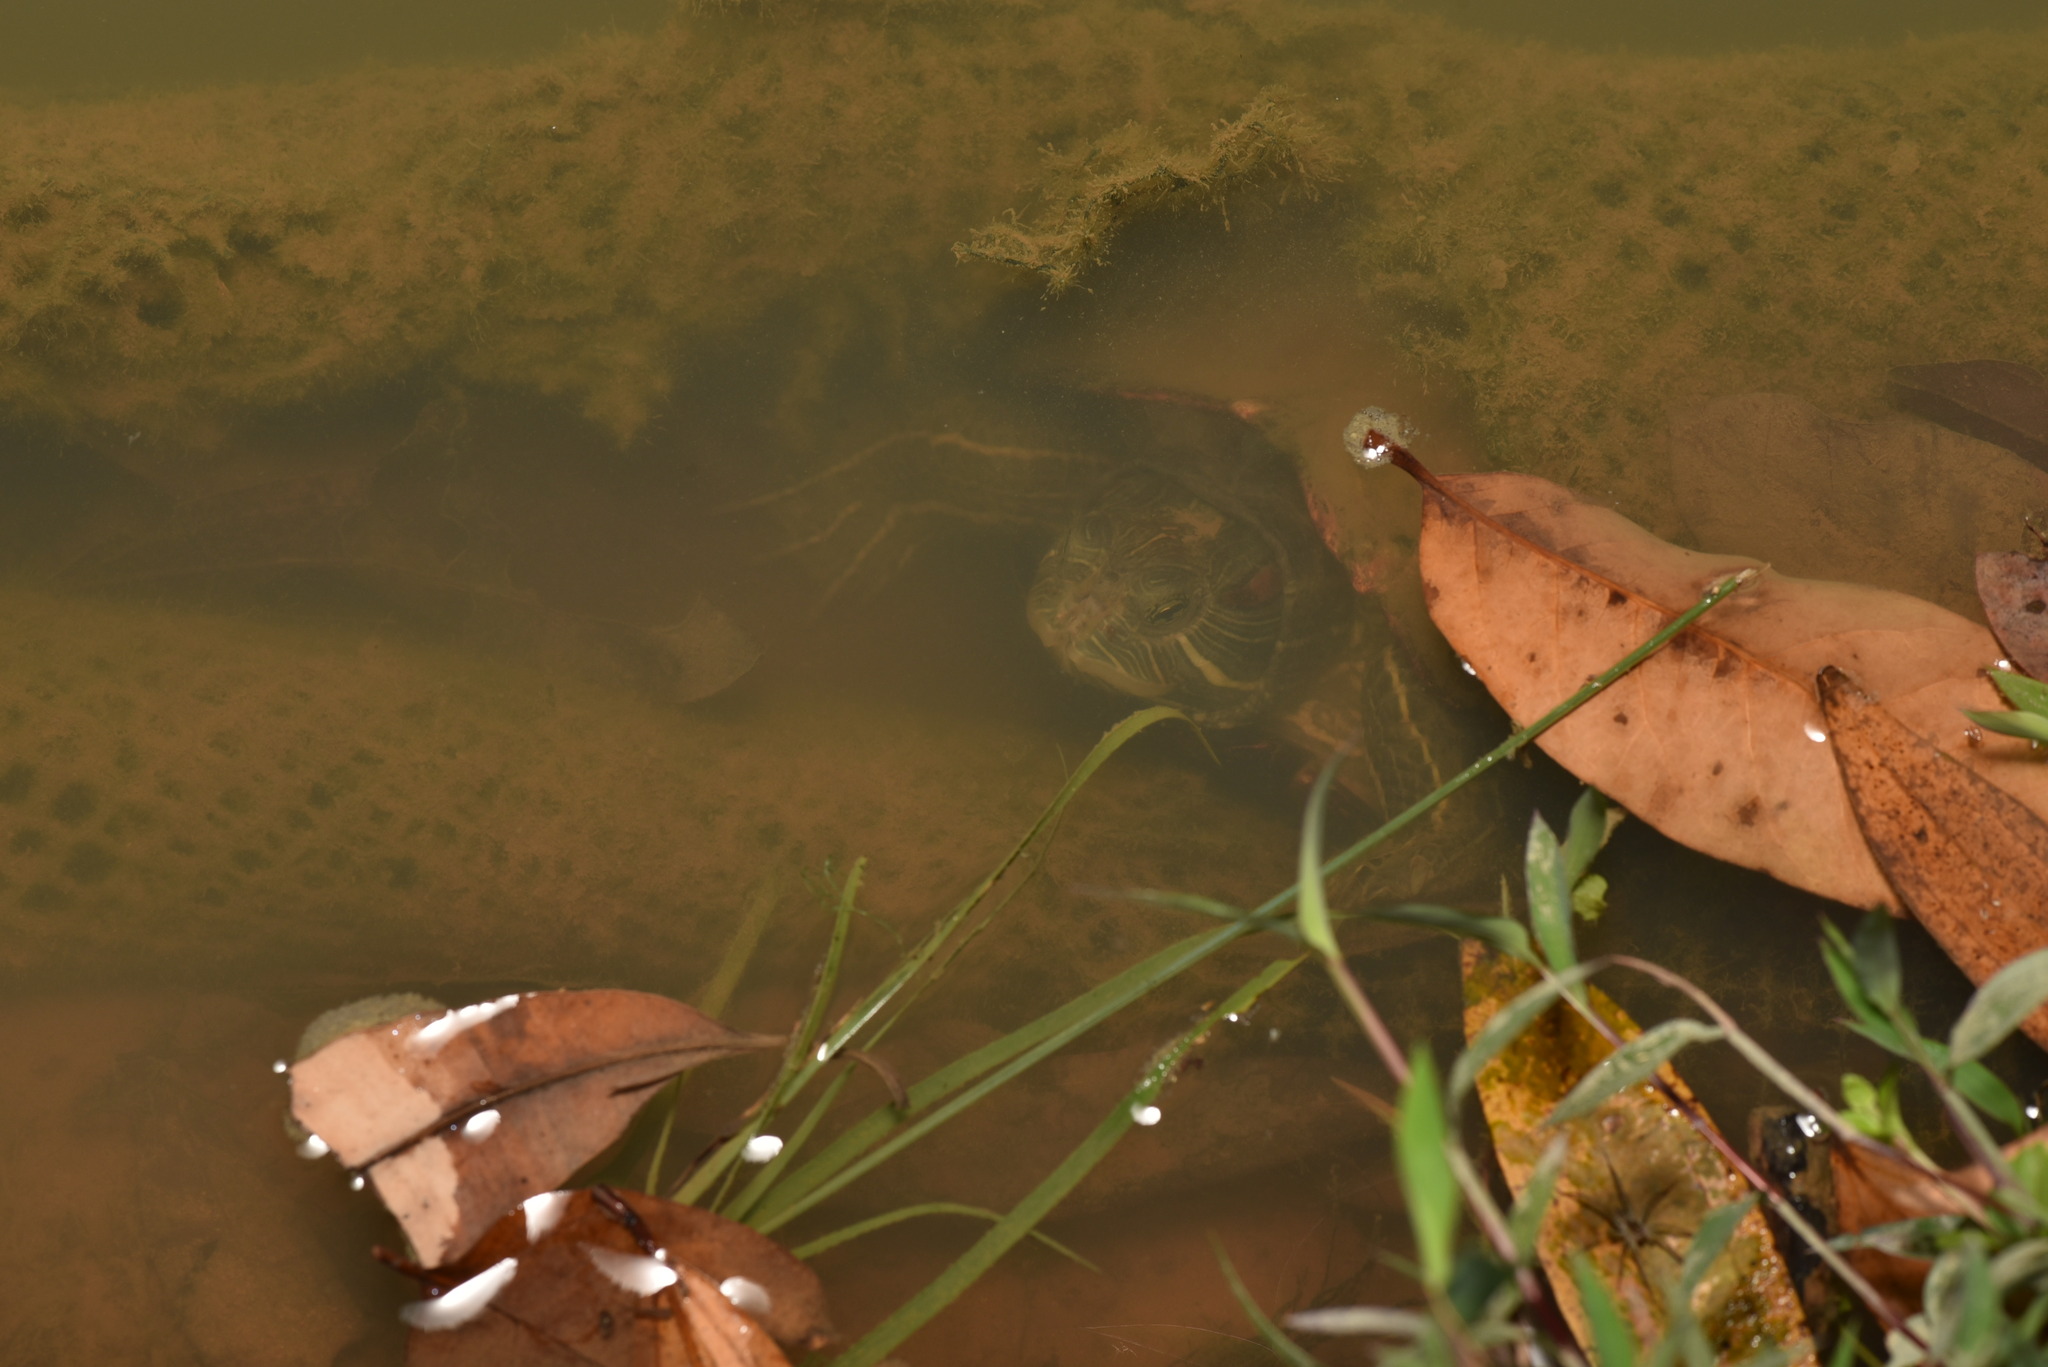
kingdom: Animalia
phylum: Chordata
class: Testudines
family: Emydidae
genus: Trachemys
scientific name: Trachemys scripta
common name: Slider
